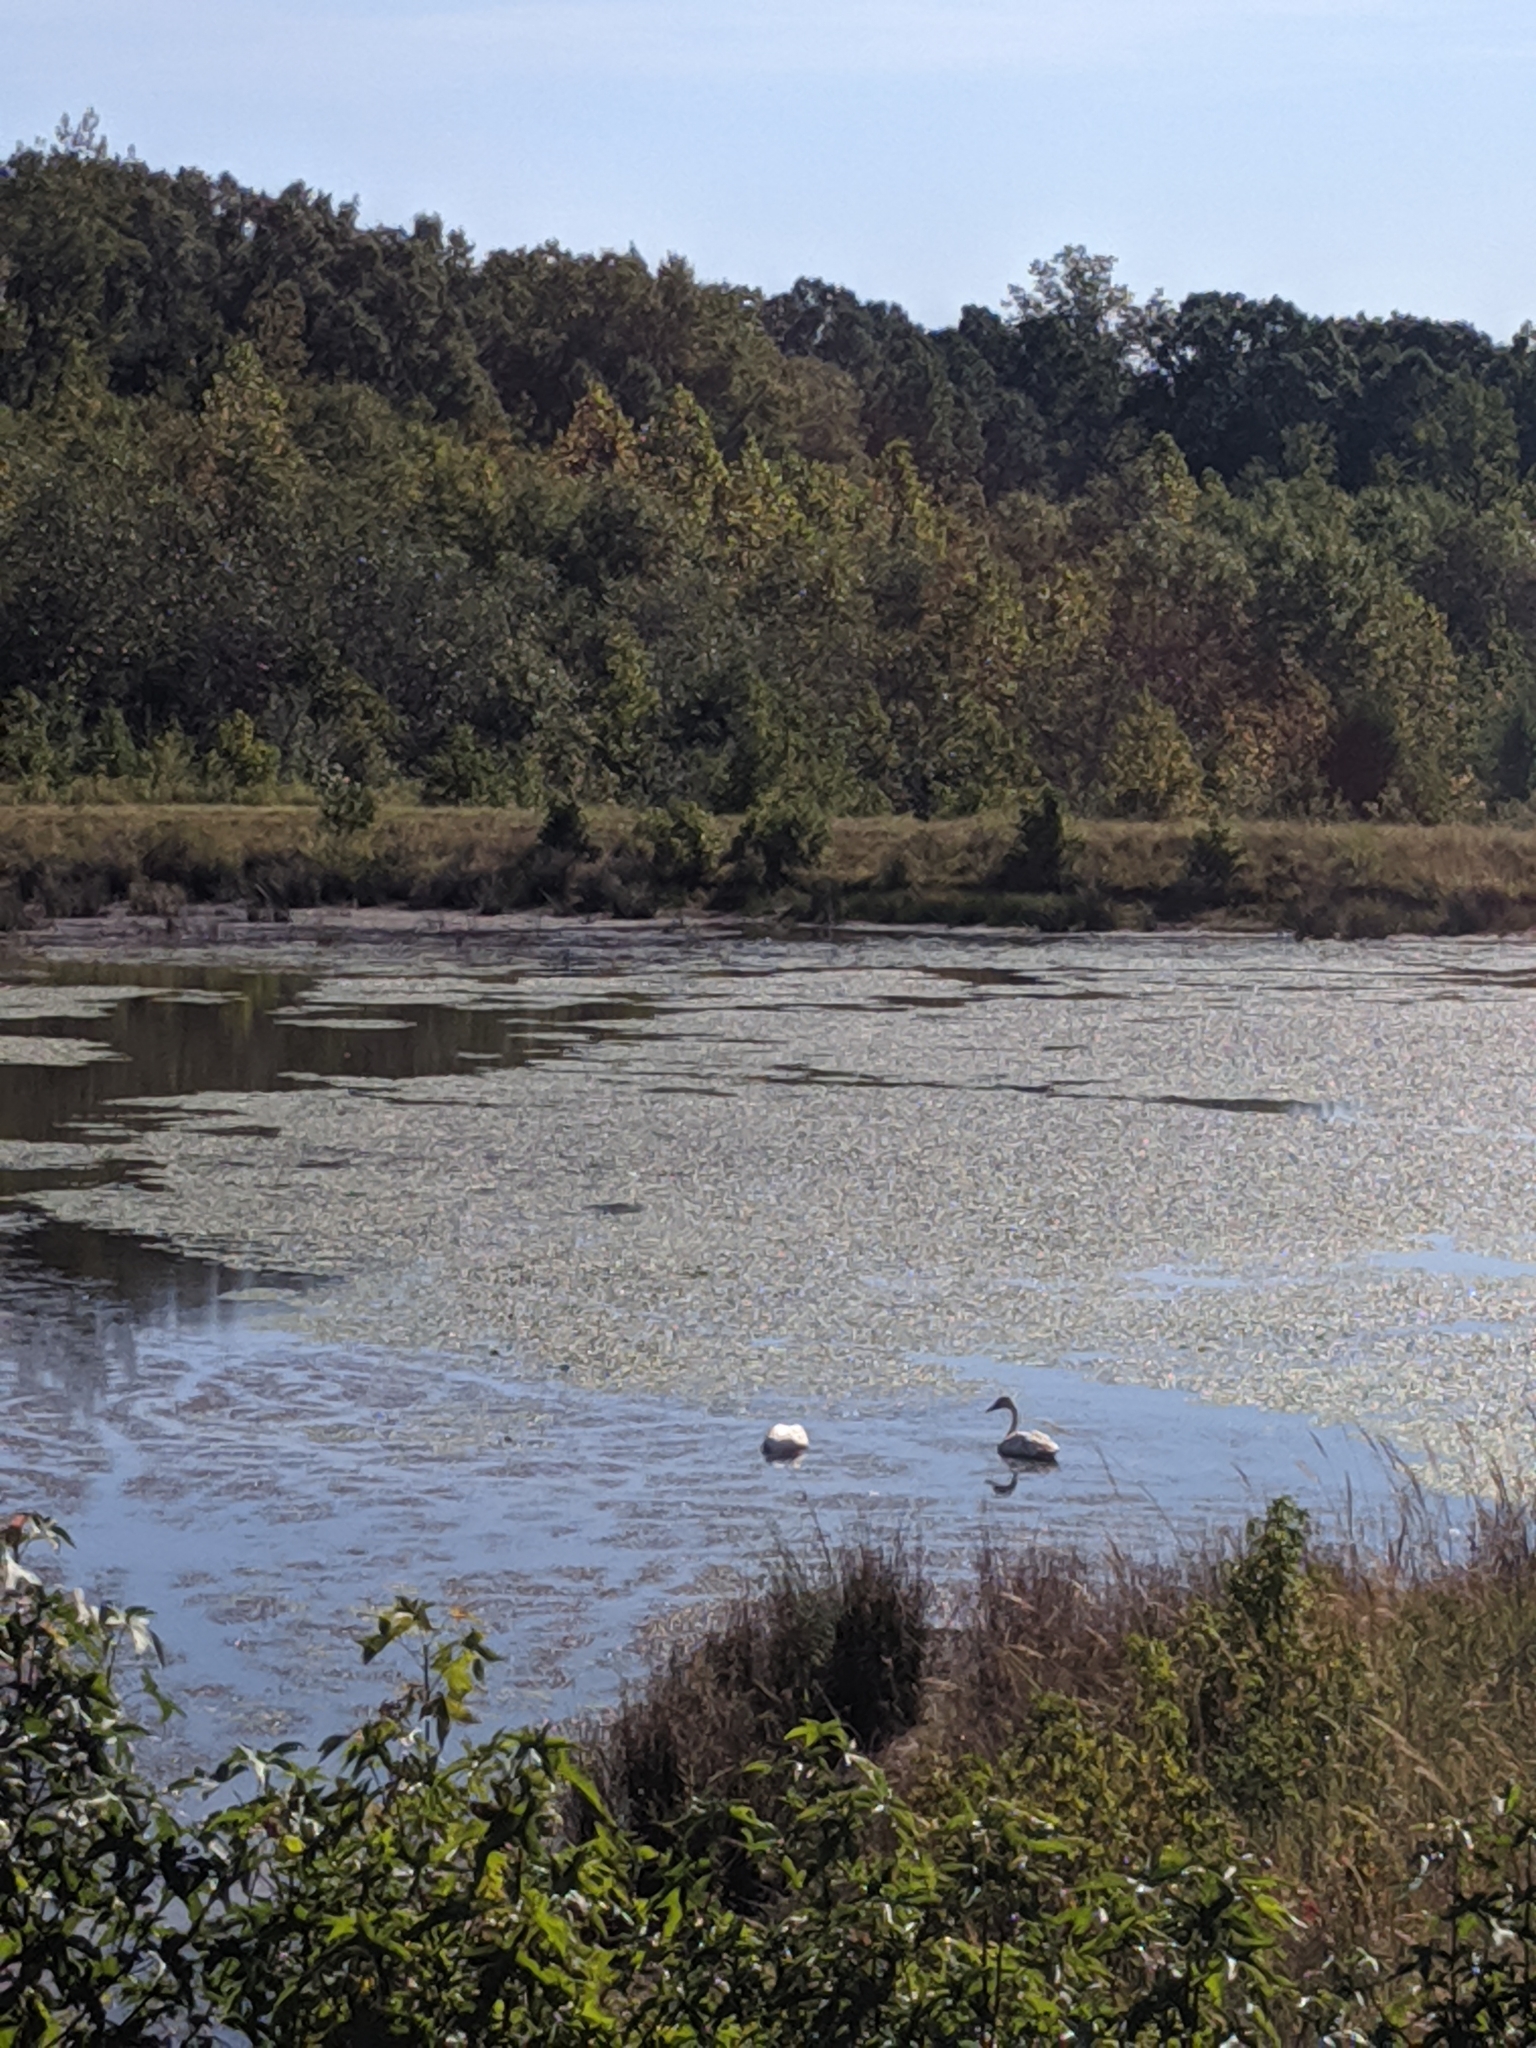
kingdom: Animalia
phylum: Chordata
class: Aves
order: Anseriformes
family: Anatidae
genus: Cygnus
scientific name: Cygnus buccinator
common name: Trumpeter swan
